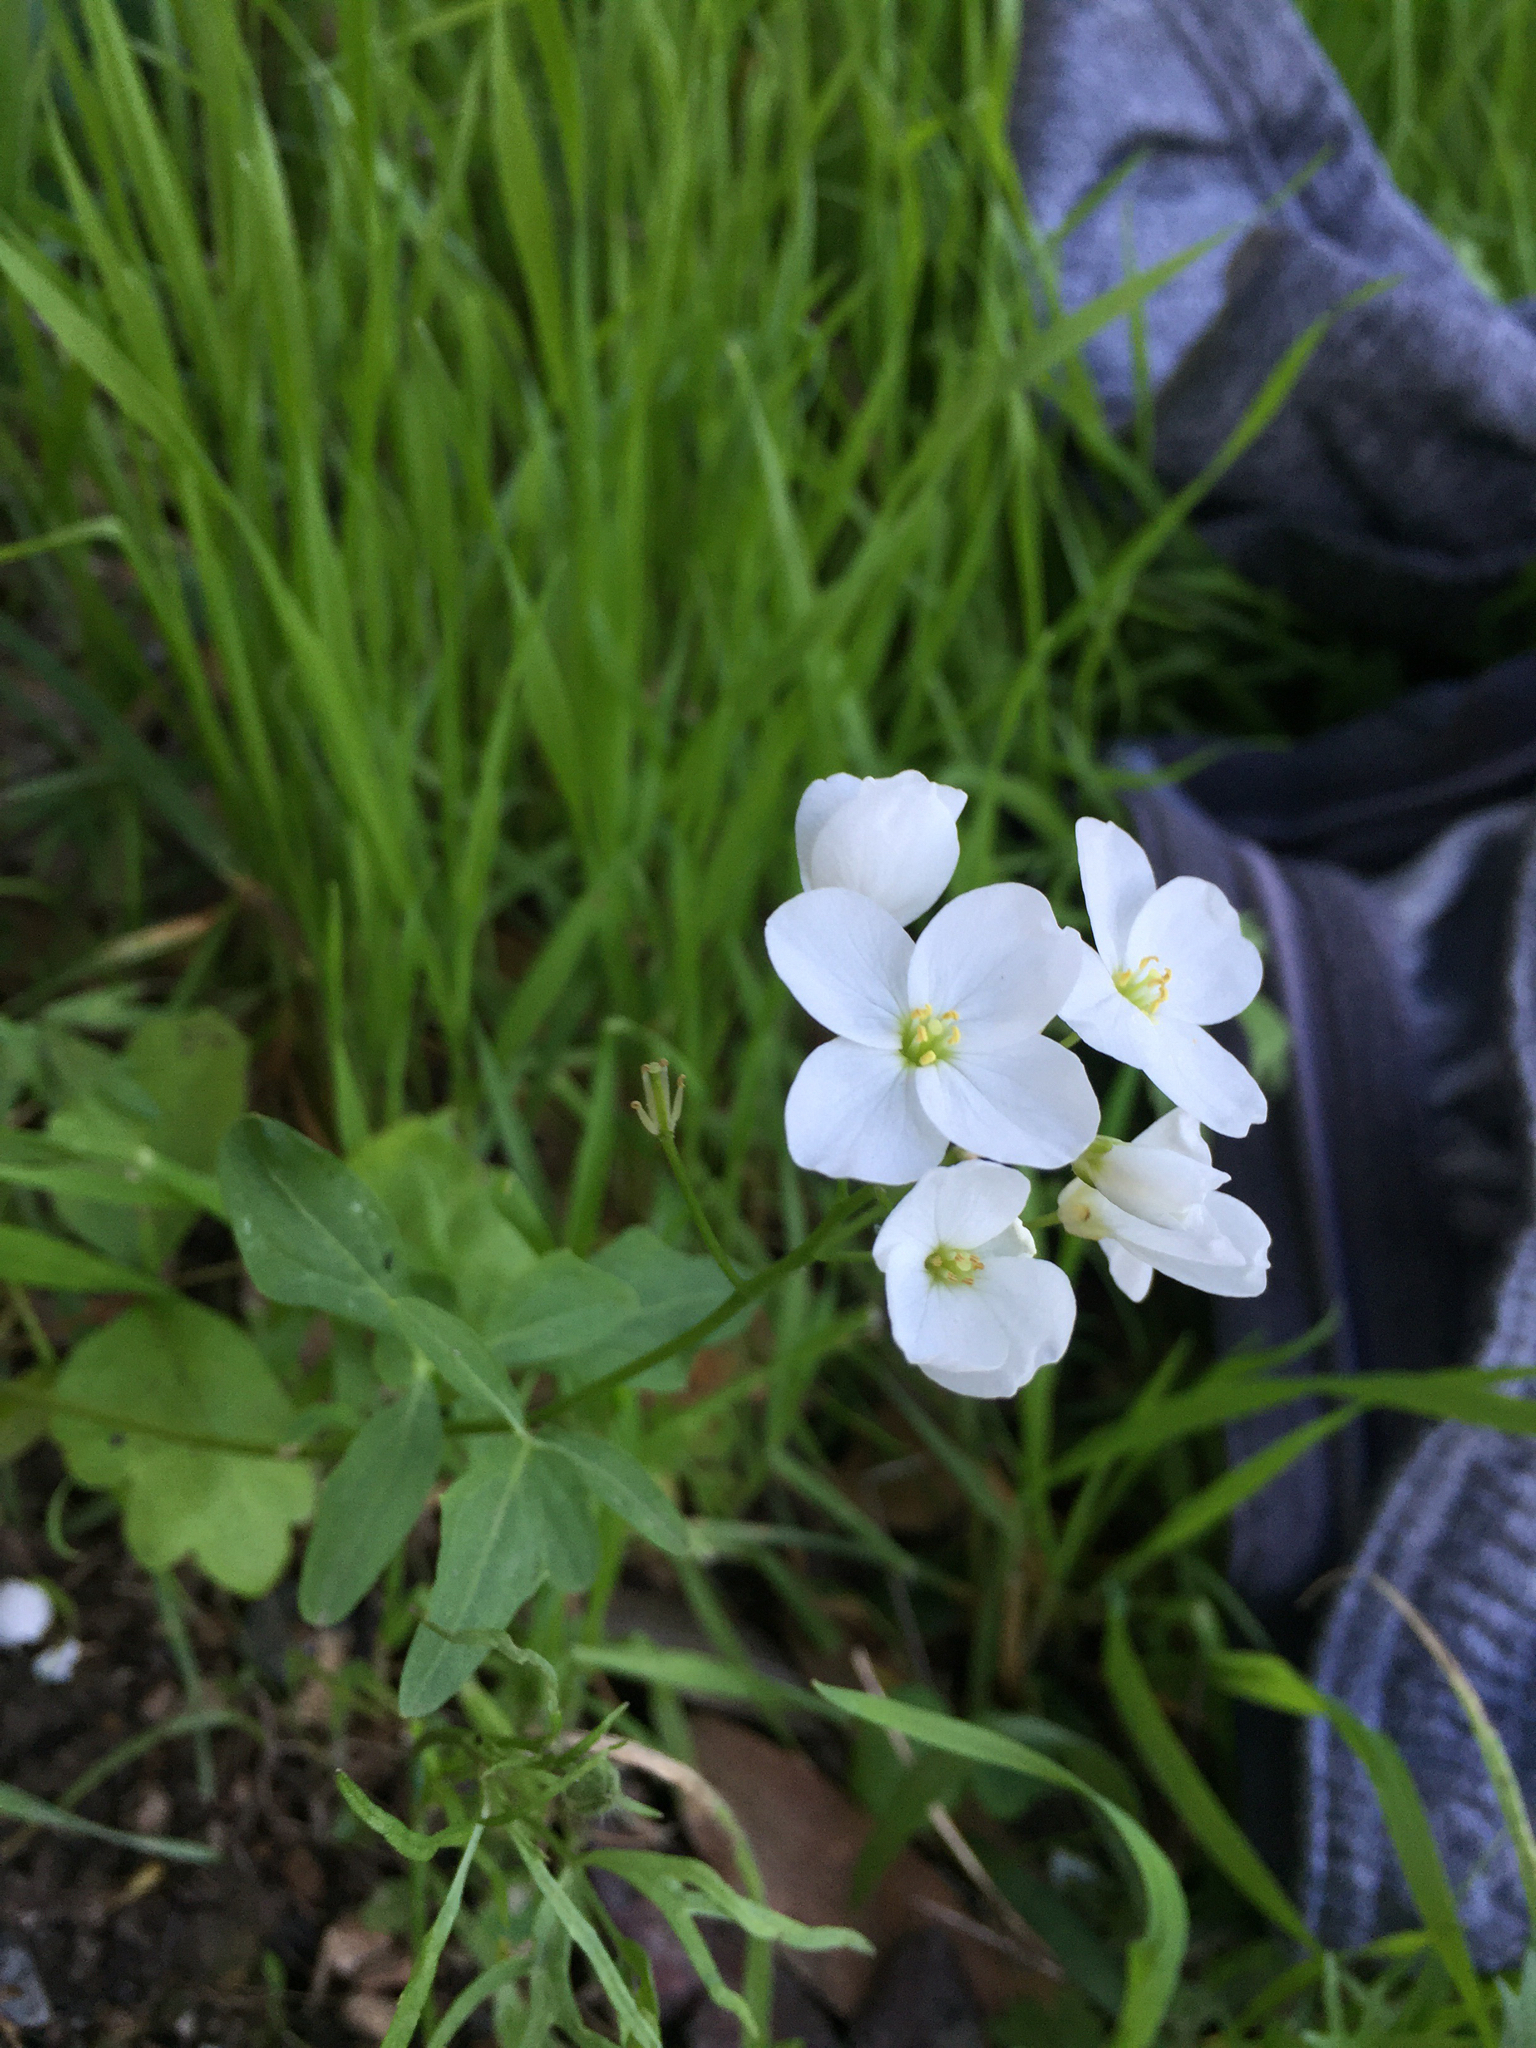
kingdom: Plantae
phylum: Tracheophyta
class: Magnoliopsida
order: Brassicales
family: Brassicaceae
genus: Cardamine
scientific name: Cardamine californica
